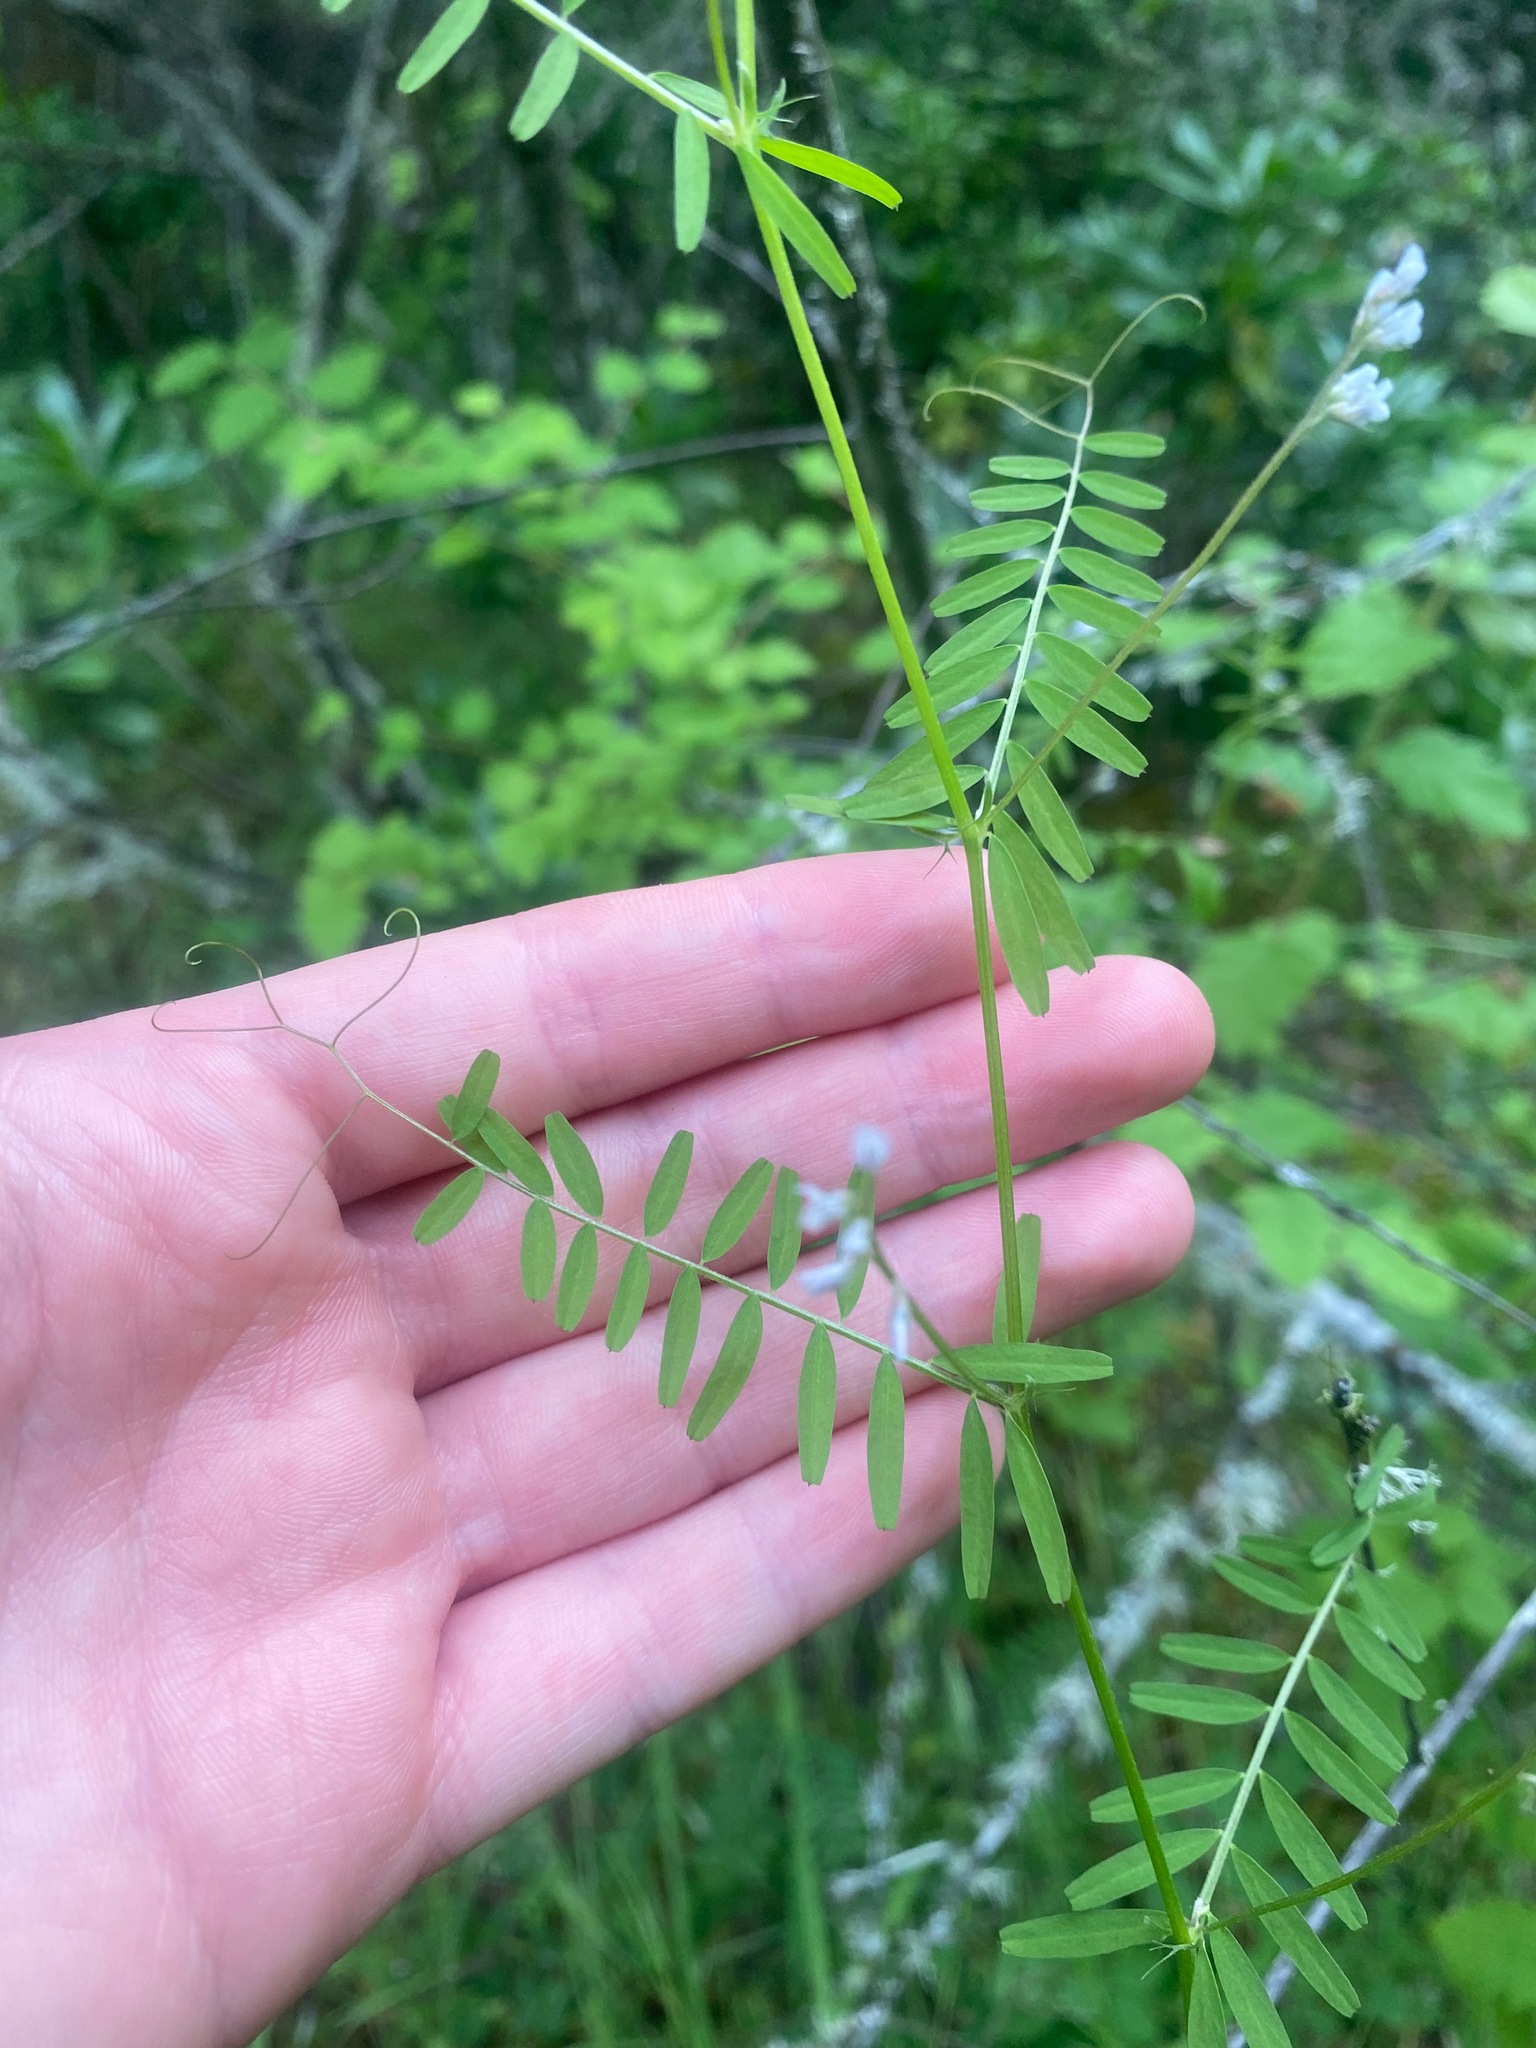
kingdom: Plantae
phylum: Tracheophyta
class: Magnoliopsida
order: Fabales
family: Fabaceae
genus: Vicia
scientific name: Vicia hirsuta
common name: Tiny vetch
